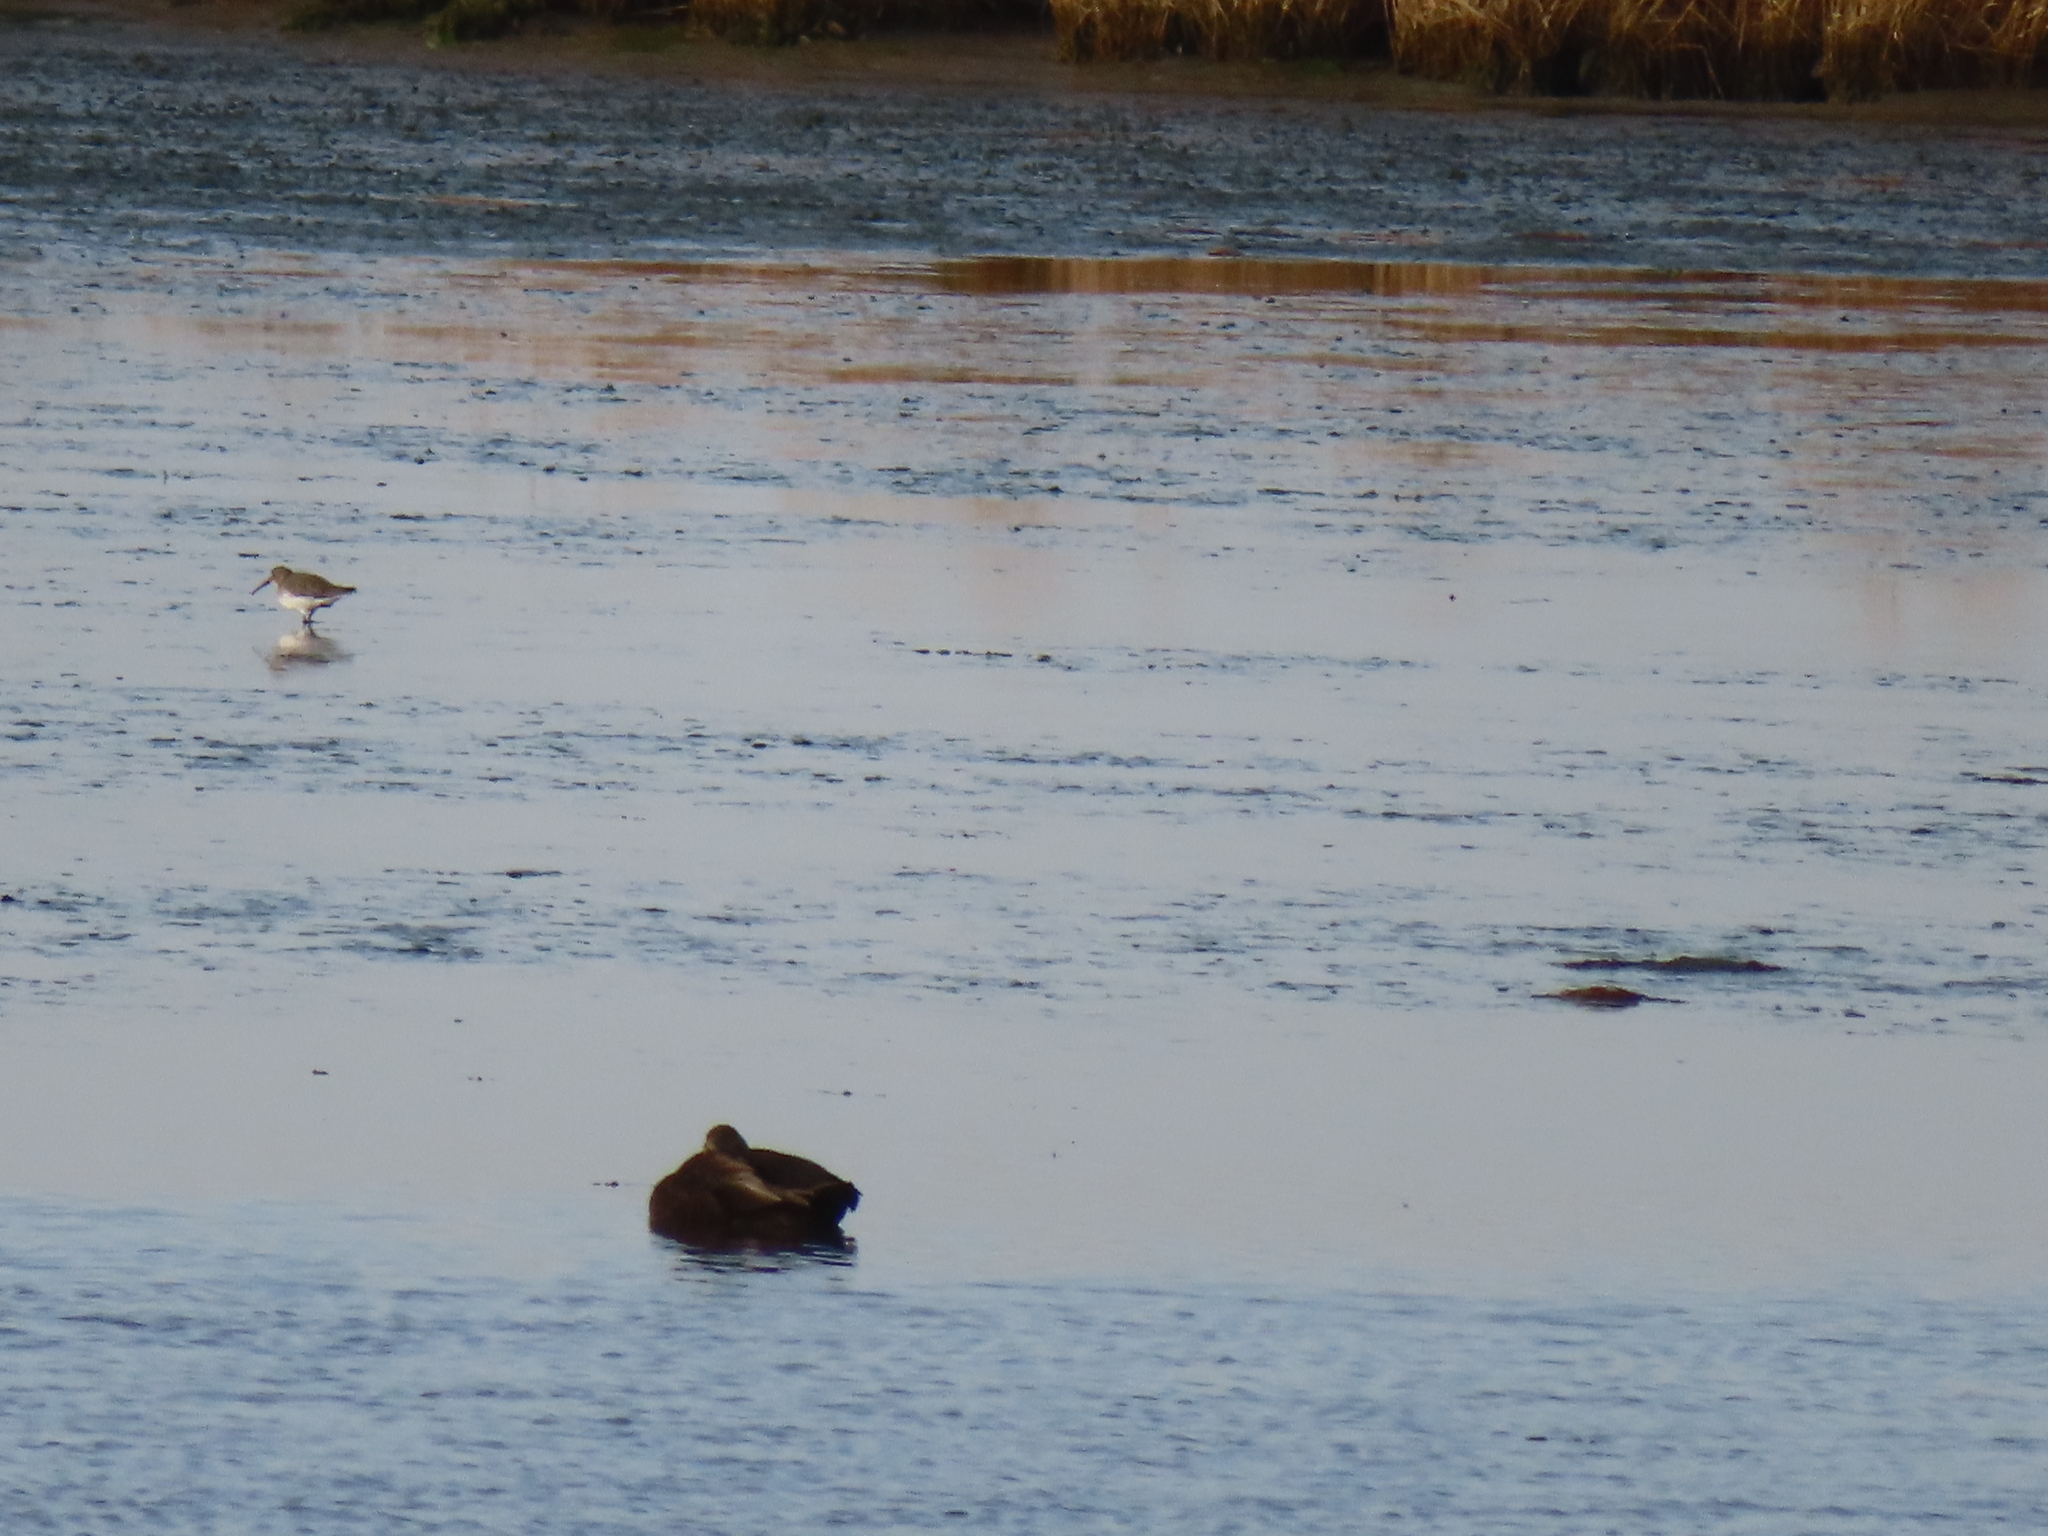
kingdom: Animalia
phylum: Chordata
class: Aves
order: Charadriiformes
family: Scolopacidae
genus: Calidris
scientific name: Calidris alpina
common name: Dunlin
